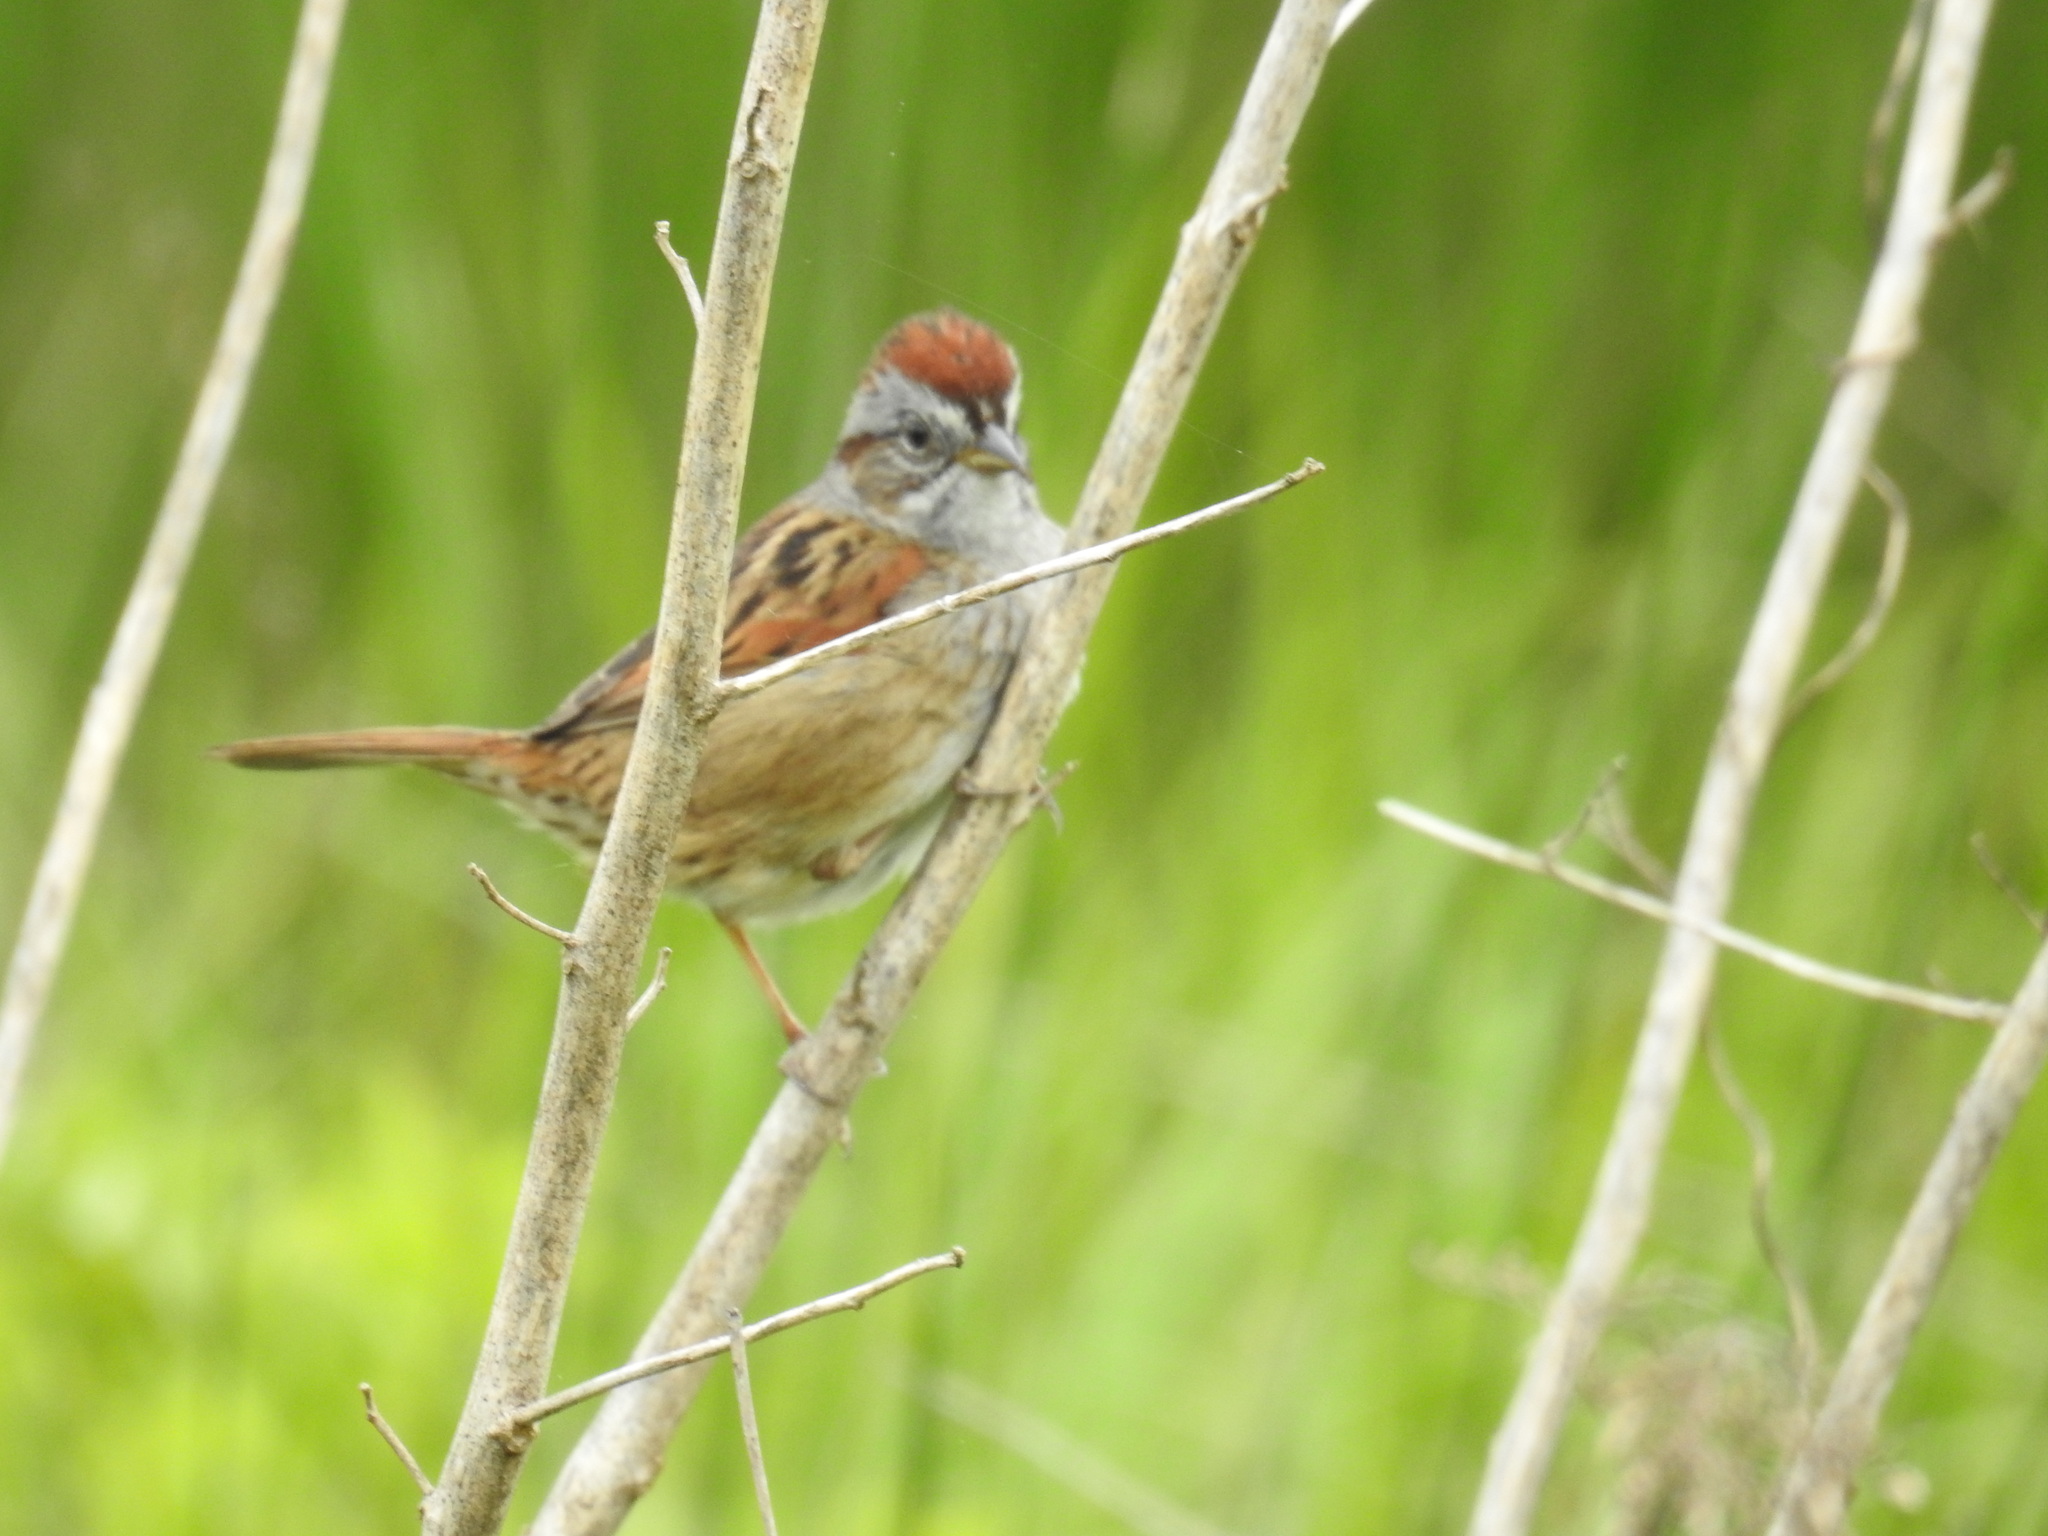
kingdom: Animalia
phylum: Chordata
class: Aves
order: Passeriformes
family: Passerellidae
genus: Melospiza
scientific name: Melospiza georgiana
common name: Swamp sparrow
